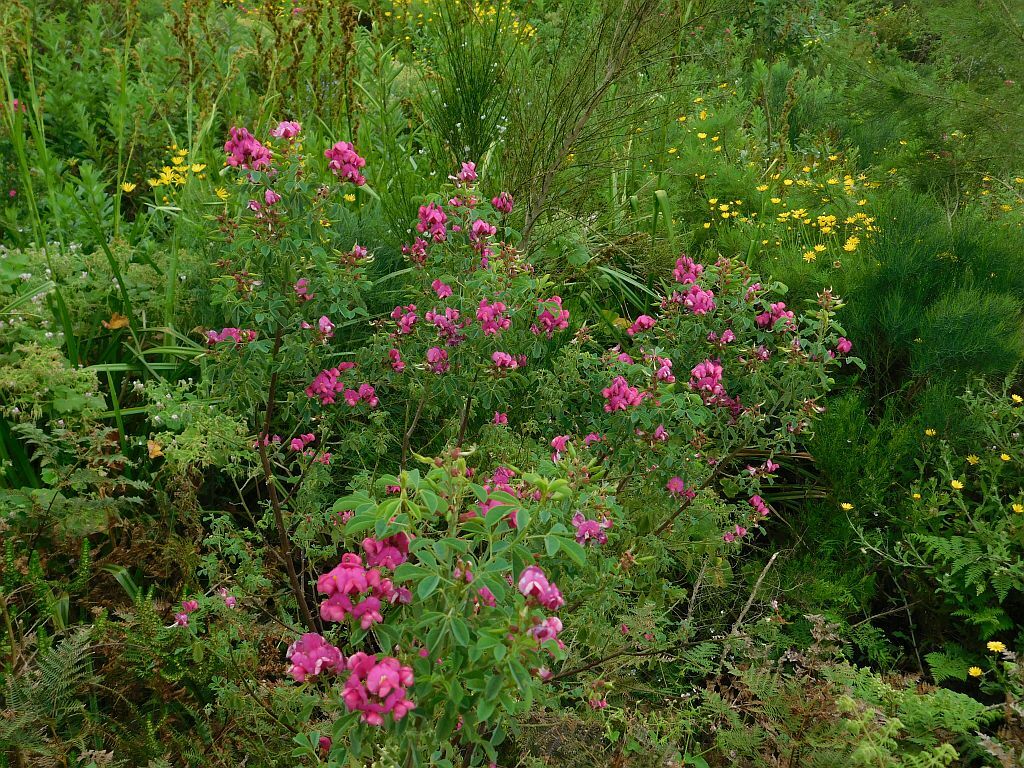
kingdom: Plantae
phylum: Tracheophyta
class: Magnoliopsida
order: Fabales
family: Fabaceae
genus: Hypocalyptus
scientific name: Hypocalyptus coluteoides
